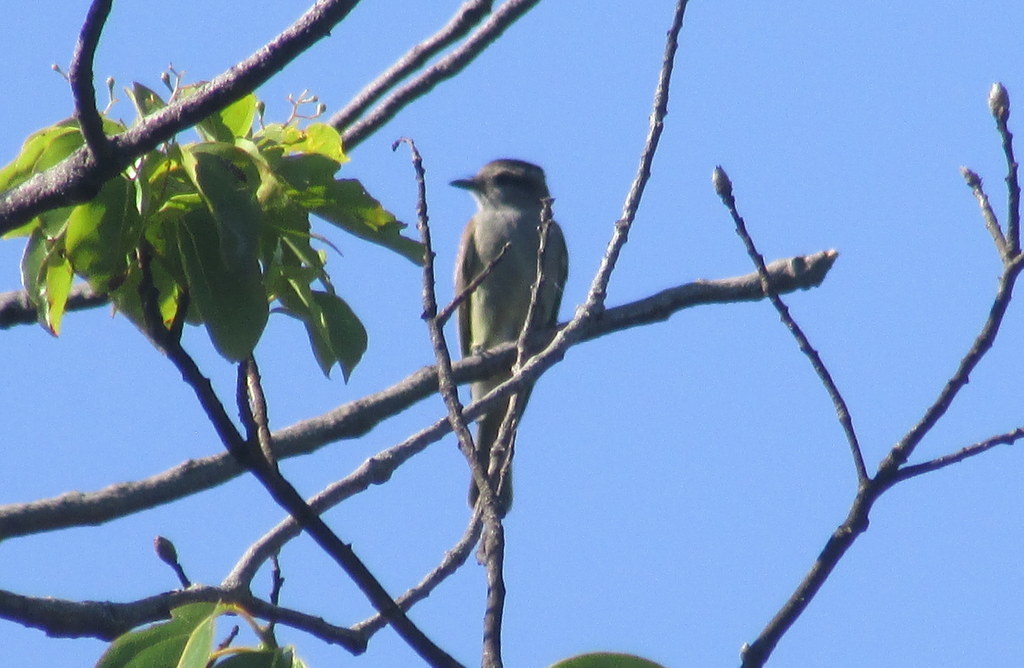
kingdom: Animalia
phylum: Chordata
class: Aves
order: Passeriformes
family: Tyrannidae
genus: Empidonomus
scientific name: Empidonomus aurantioatrocristatus
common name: Crowned slaty flycatcher
